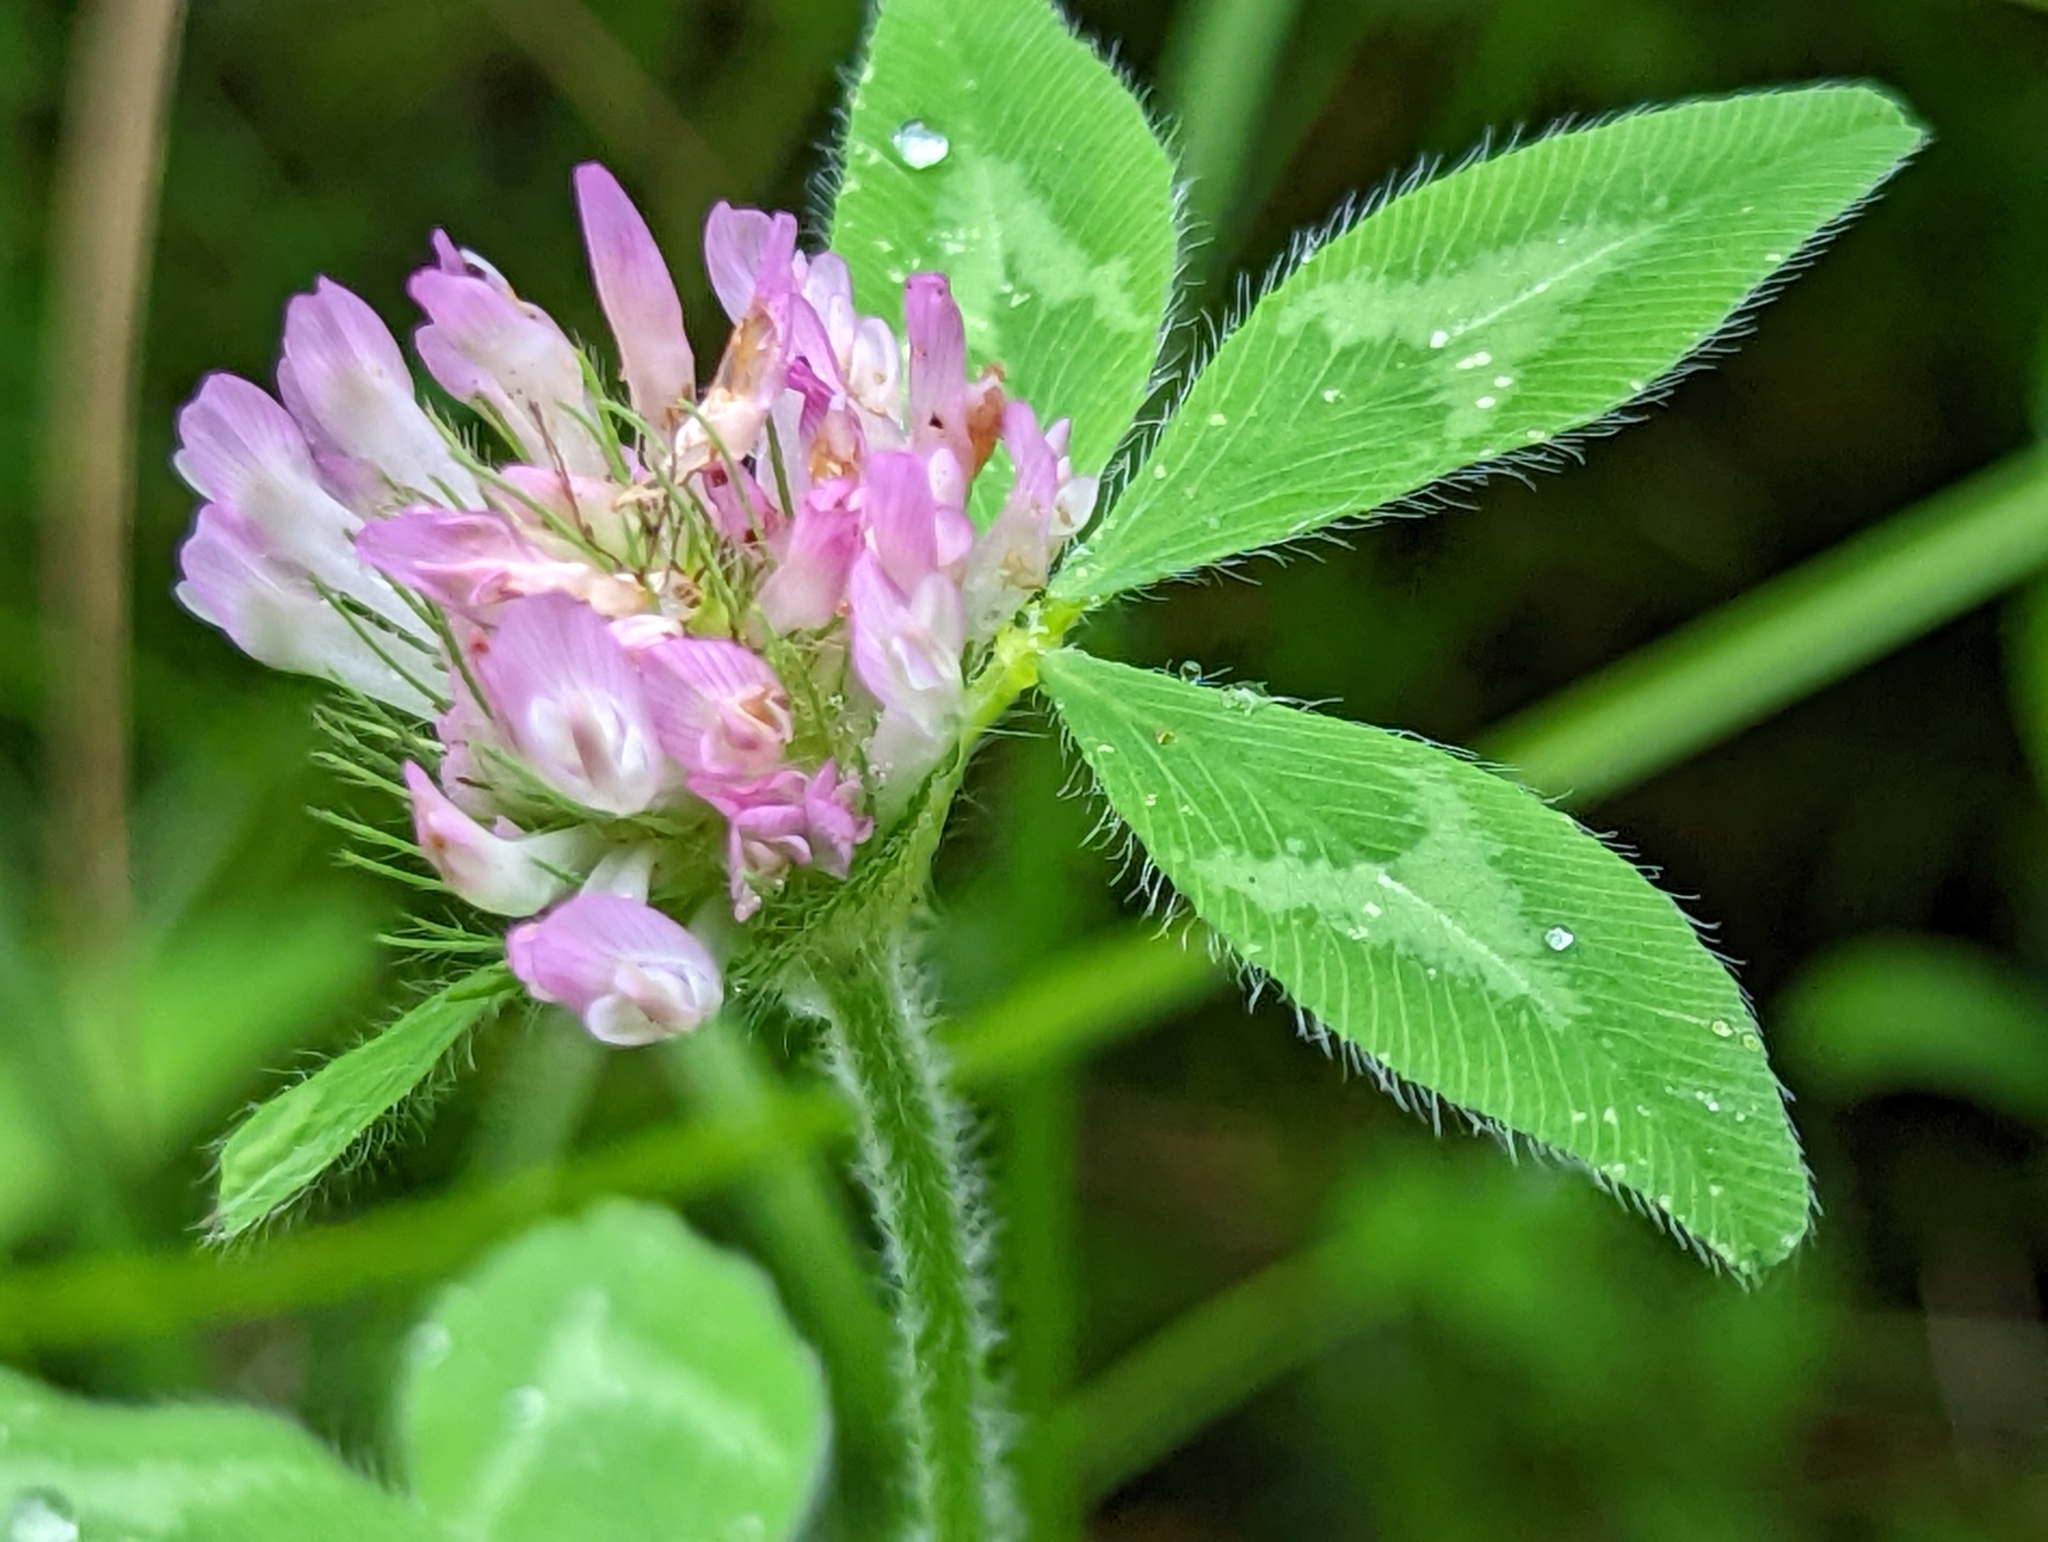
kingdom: Plantae
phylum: Tracheophyta
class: Magnoliopsida
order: Fabales
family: Fabaceae
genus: Trifolium
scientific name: Trifolium pratense
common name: Red clover
